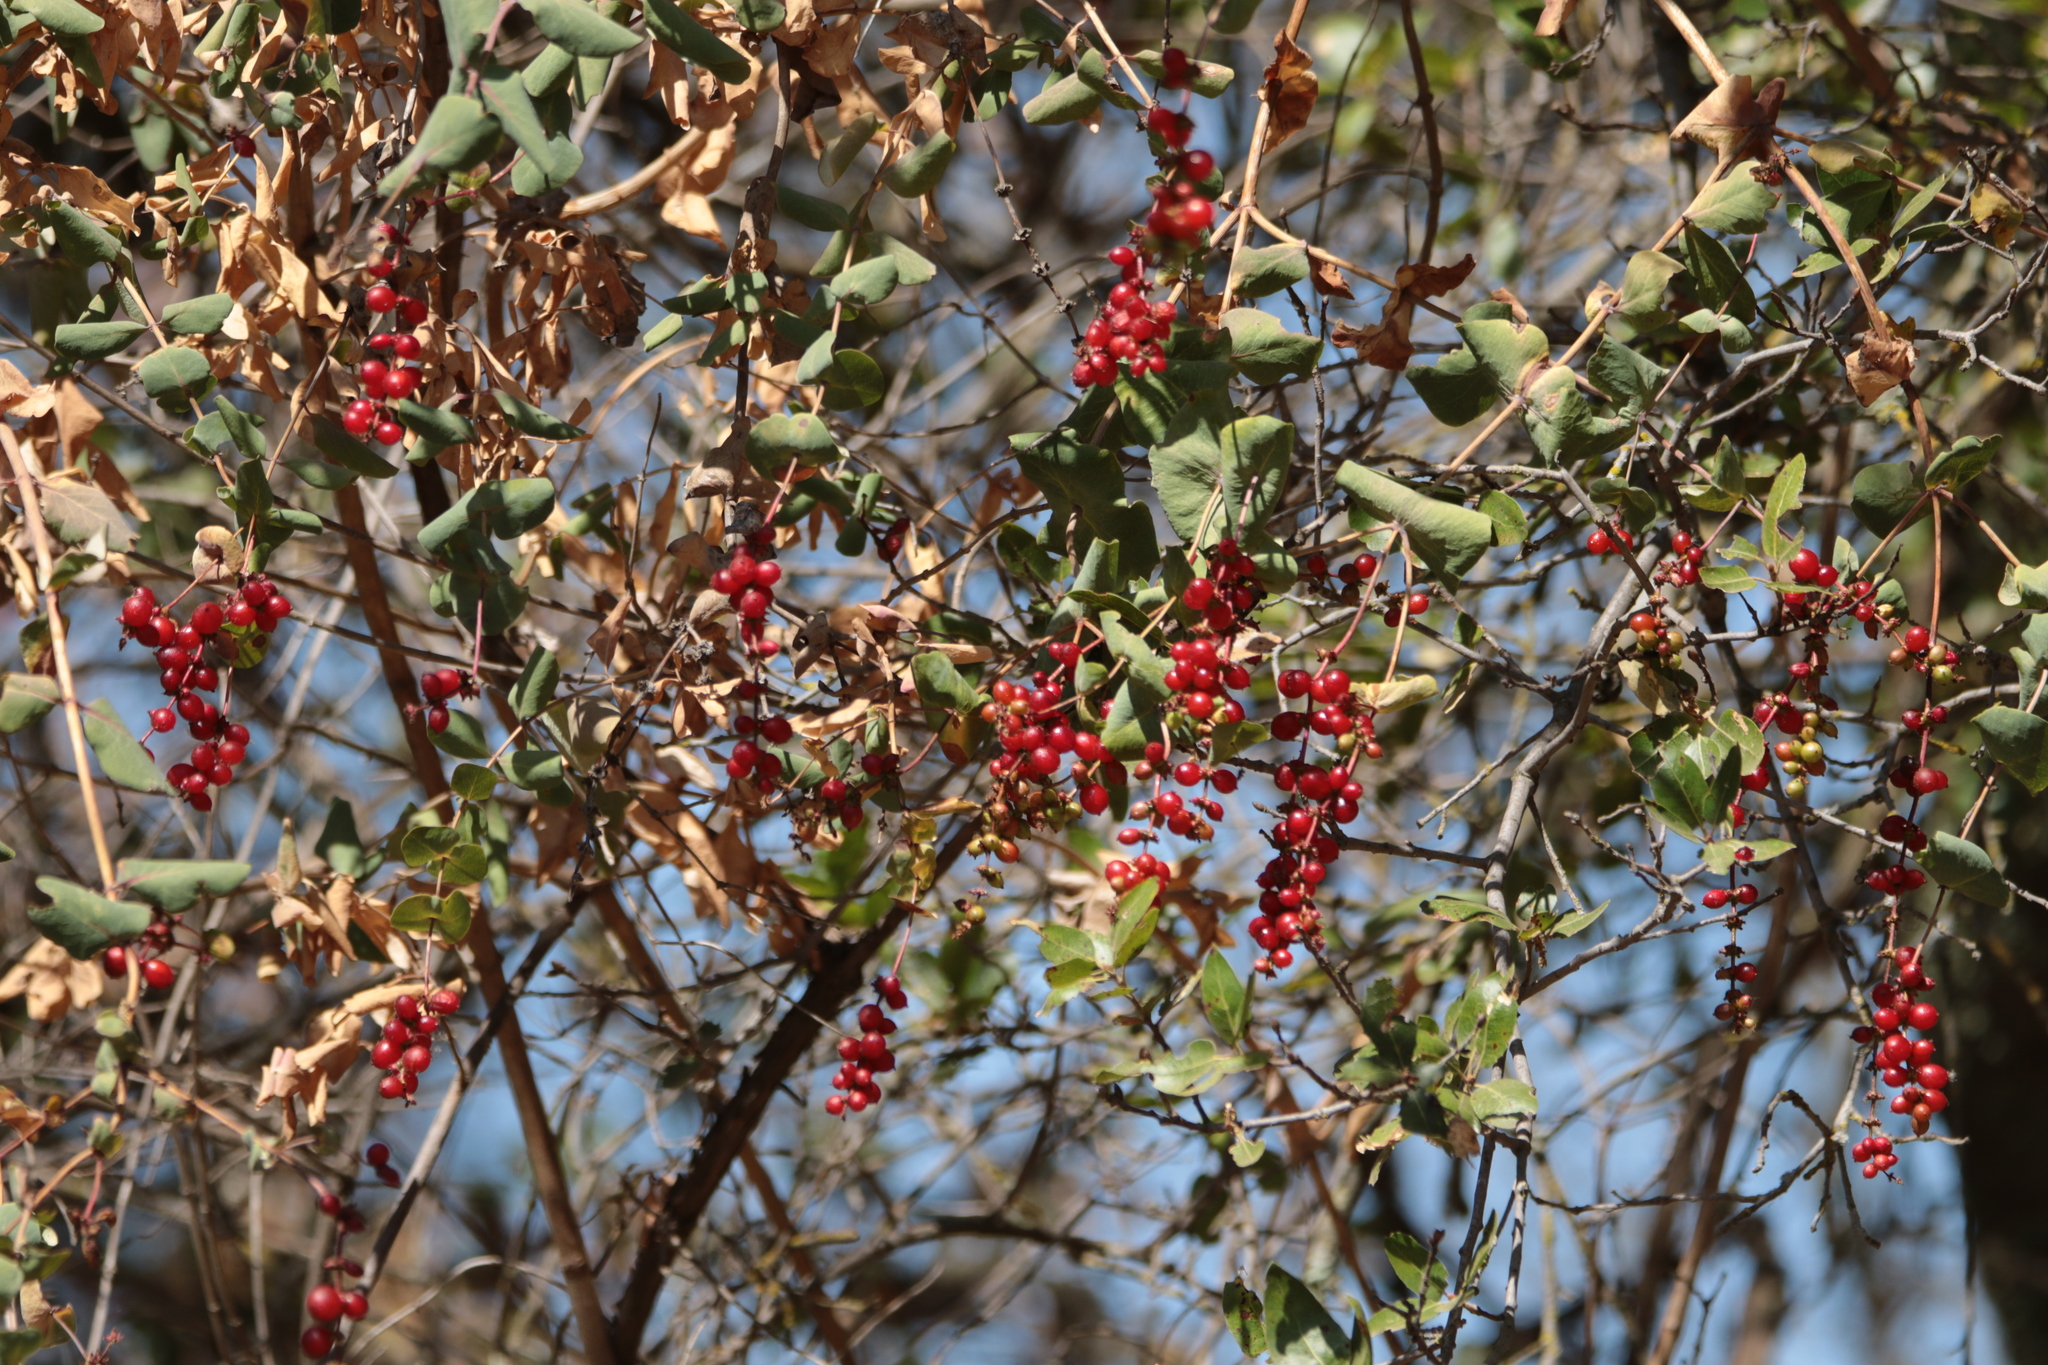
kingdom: Plantae
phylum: Tracheophyta
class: Magnoliopsida
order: Dipsacales
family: Caprifoliaceae
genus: Lonicera
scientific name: Lonicera interrupta
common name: Chaparral honeysuckle
